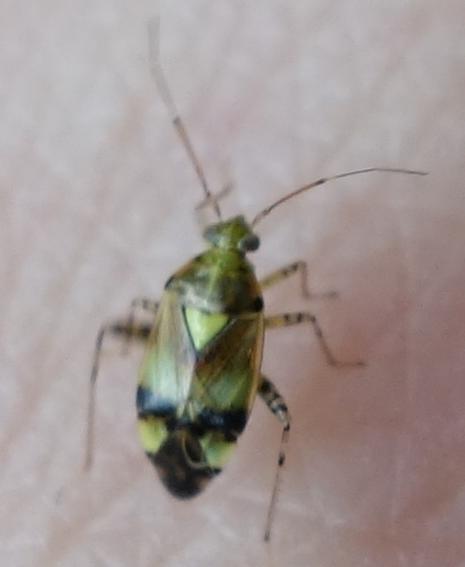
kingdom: Animalia
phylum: Arthropoda
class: Insecta
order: Hemiptera
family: Miridae
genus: Liocoris
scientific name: Liocoris tripustulatus
